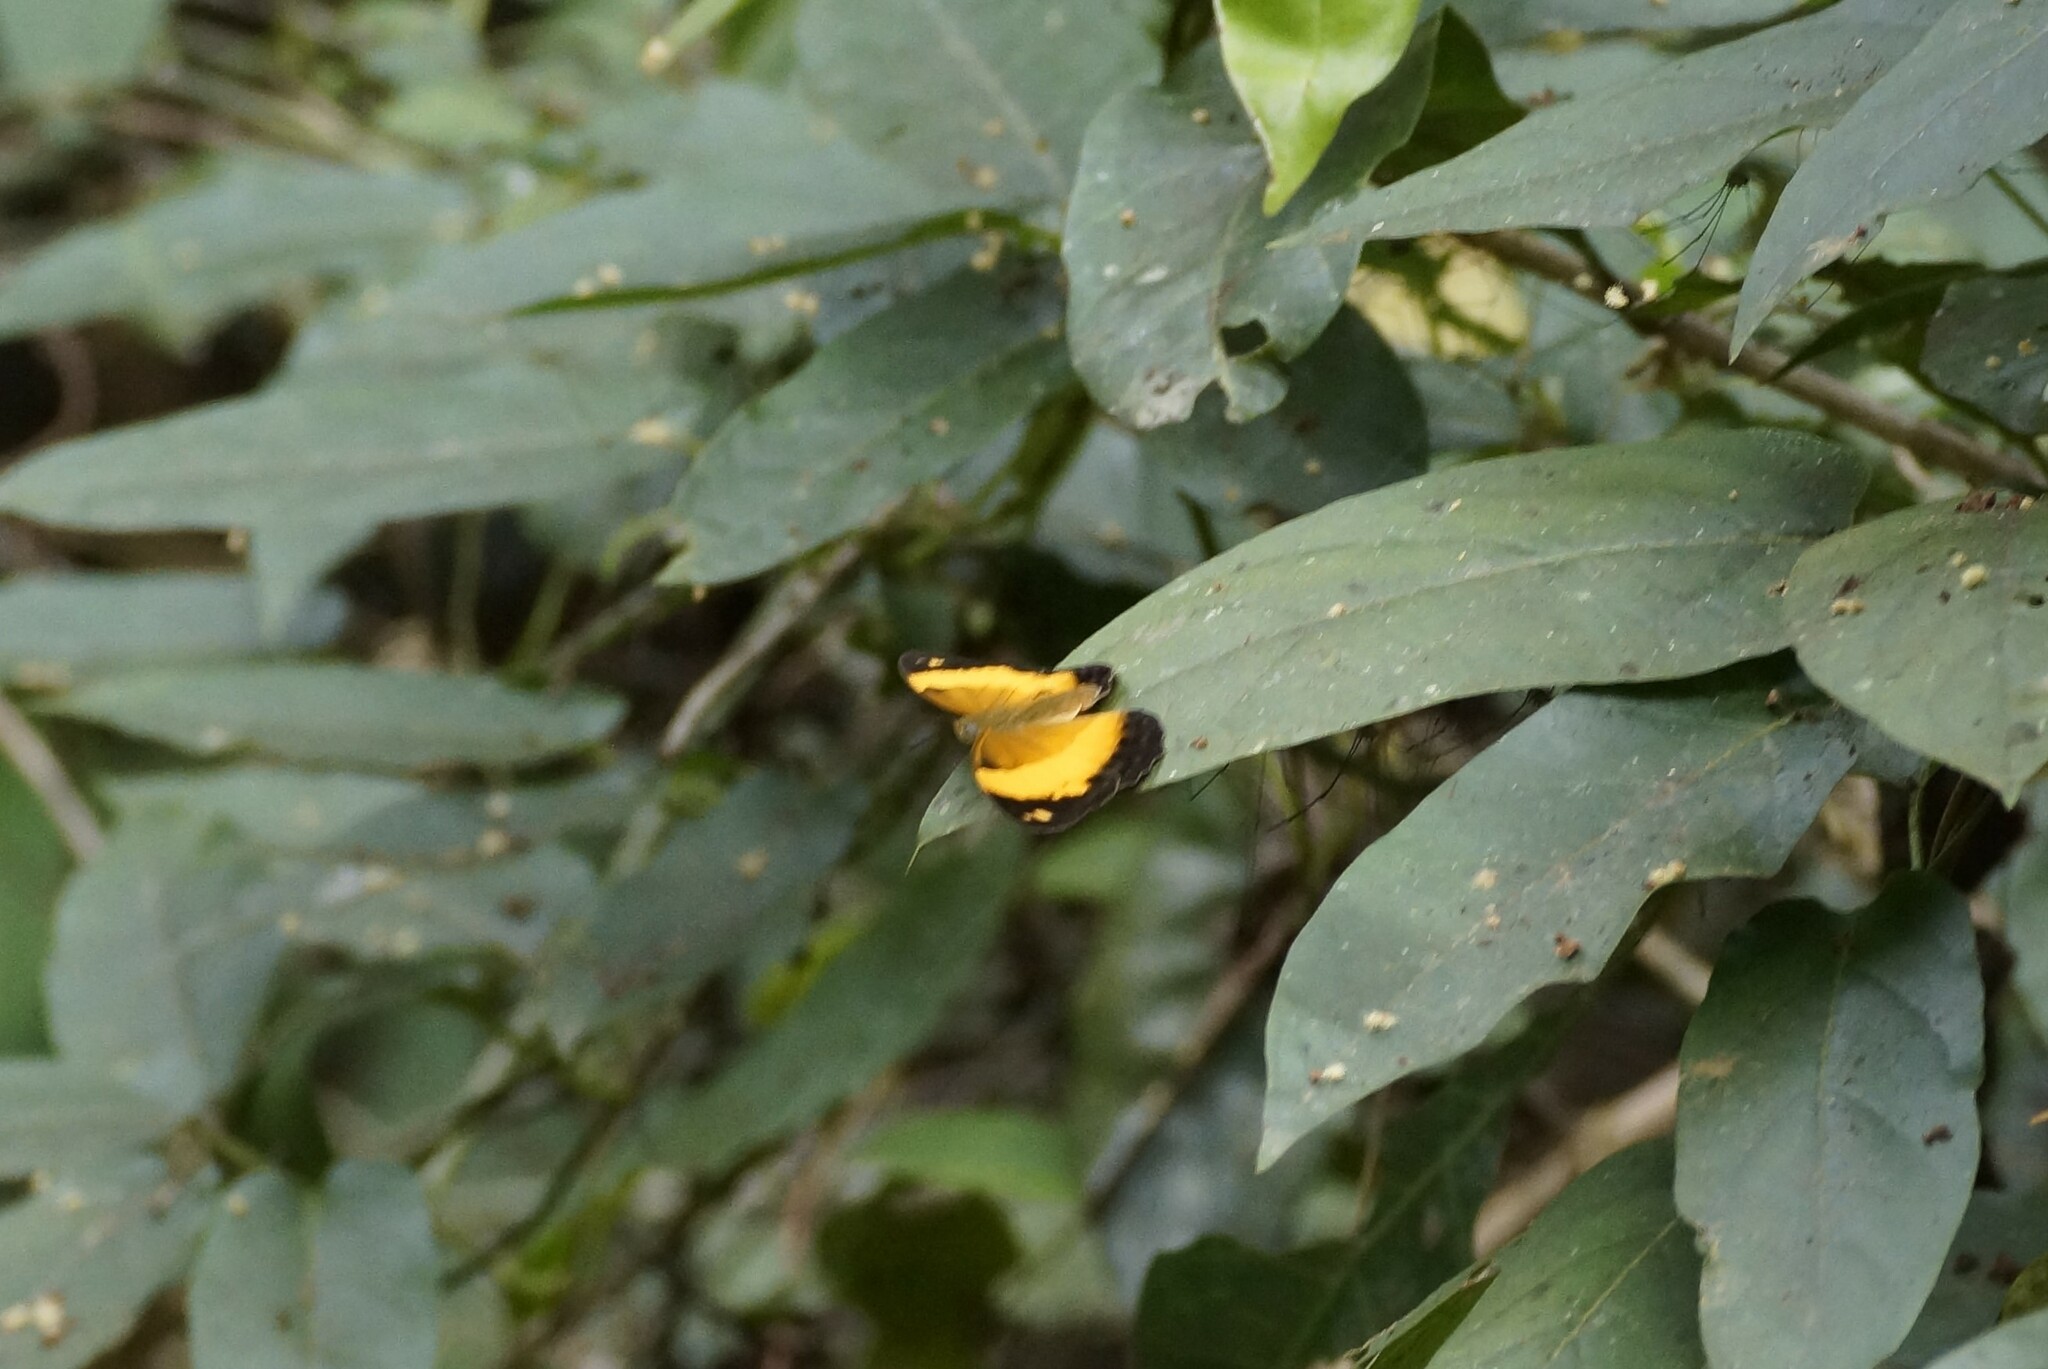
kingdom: Animalia
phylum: Arthropoda
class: Insecta
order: Lepidoptera
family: Nymphalidae
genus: Cupha
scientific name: Cupha prosope
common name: Bordered rustic
